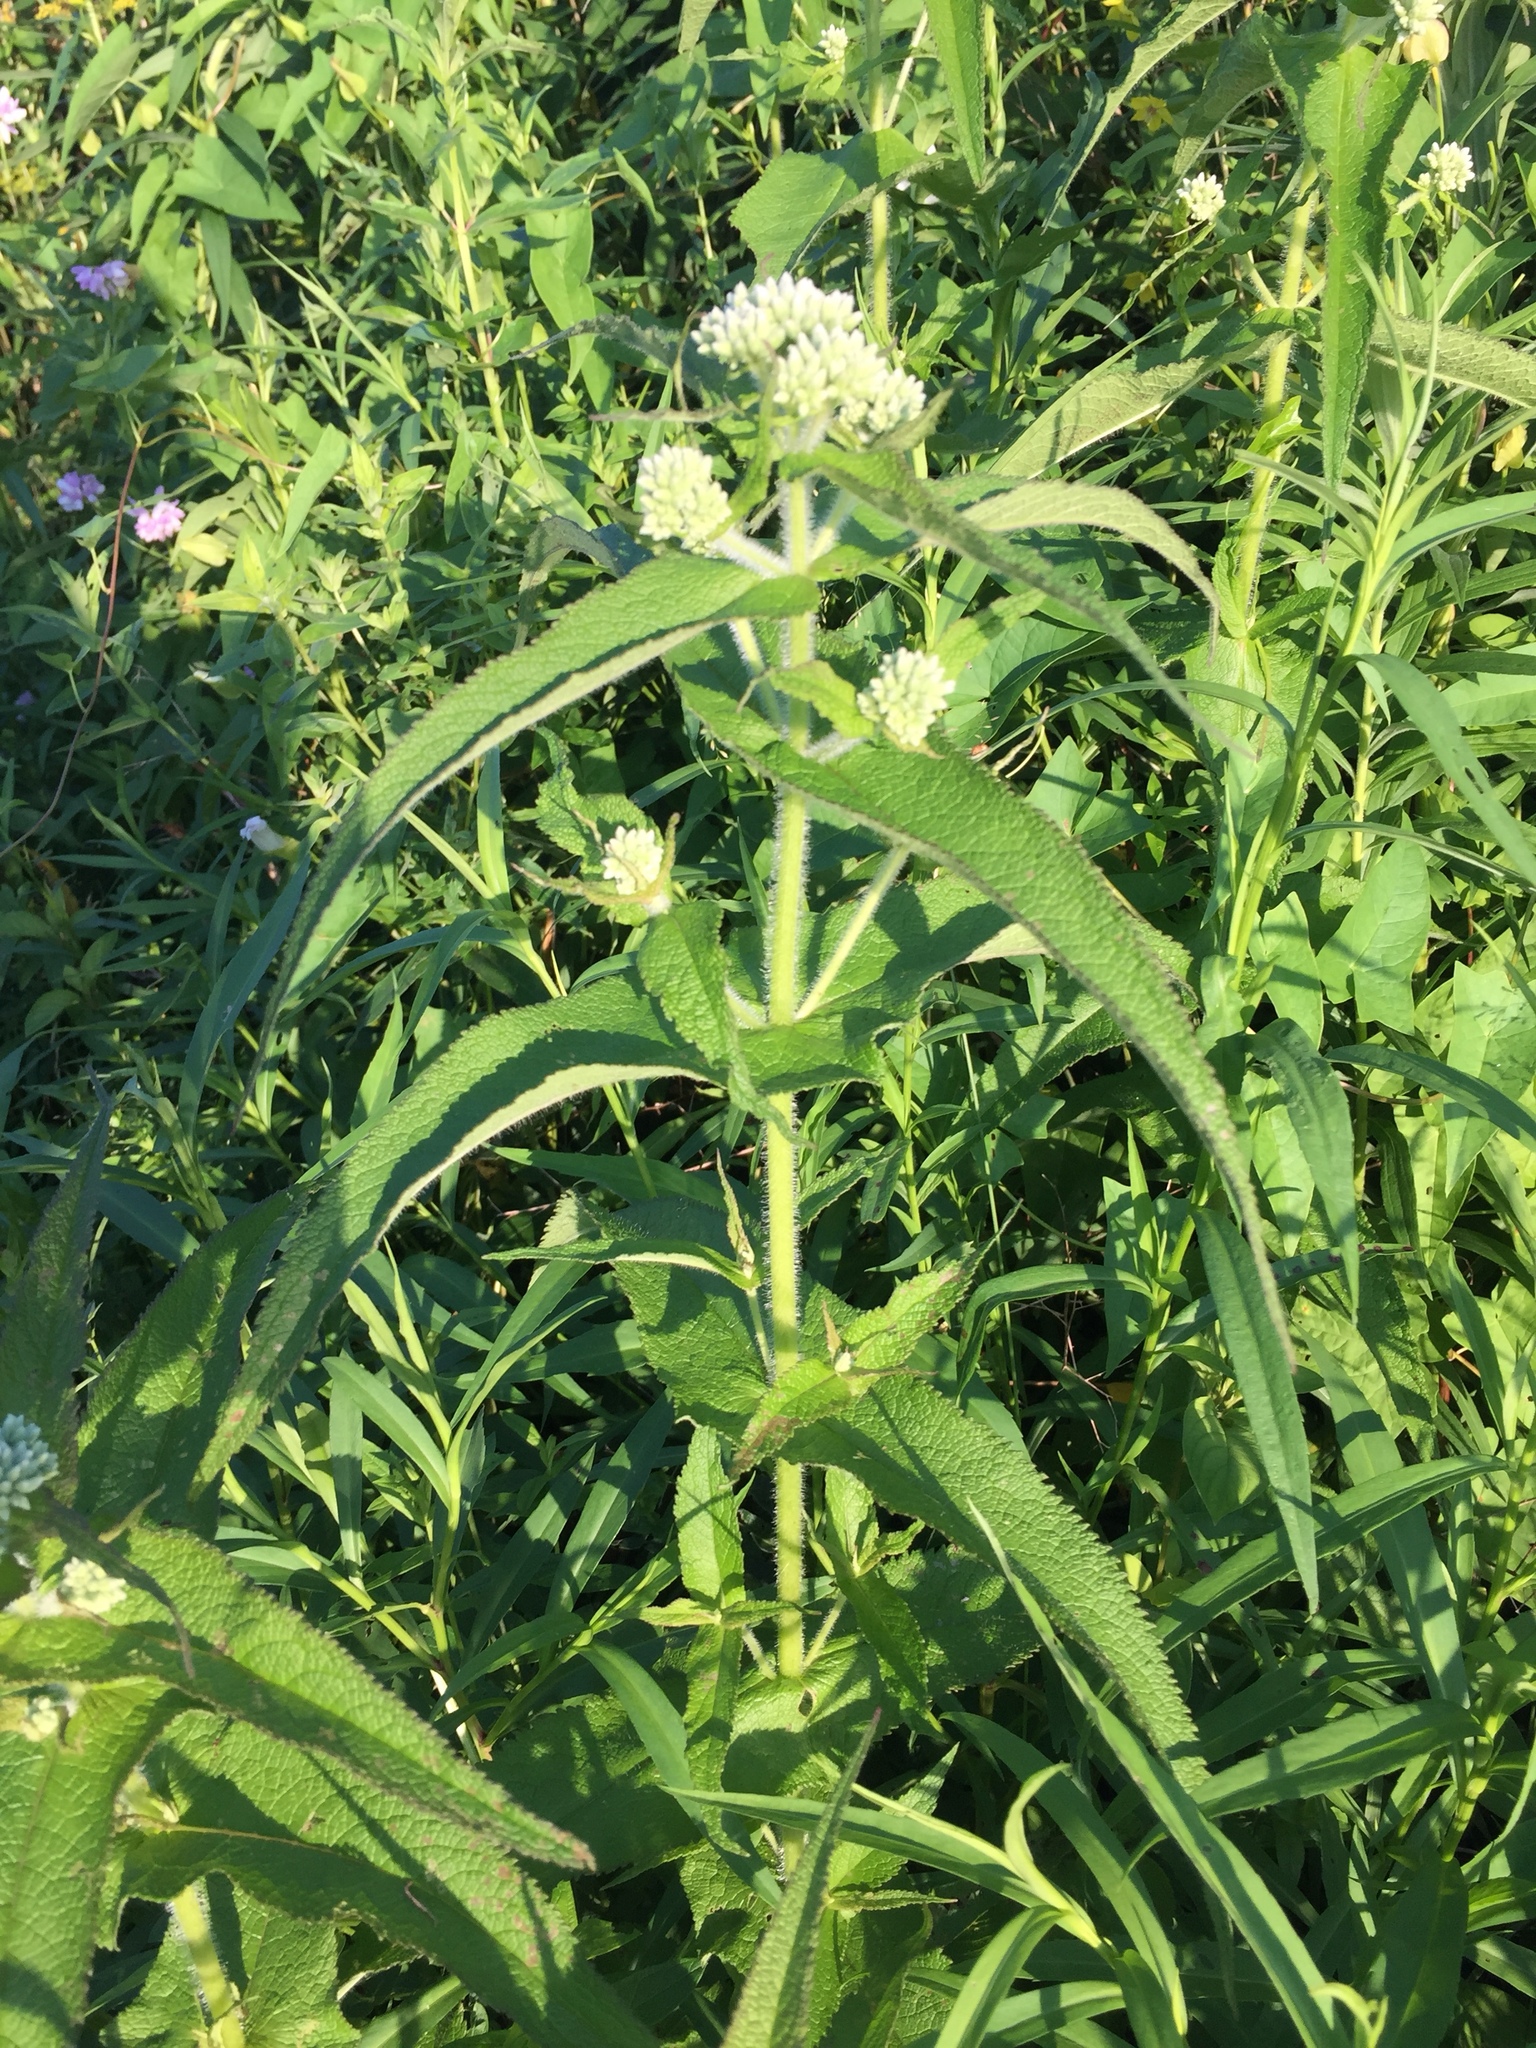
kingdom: Plantae
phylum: Tracheophyta
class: Magnoliopsida
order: Asterales
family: Asteraceae
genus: Eupatorium
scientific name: Eupatorium perfoliatum
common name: Boneset
